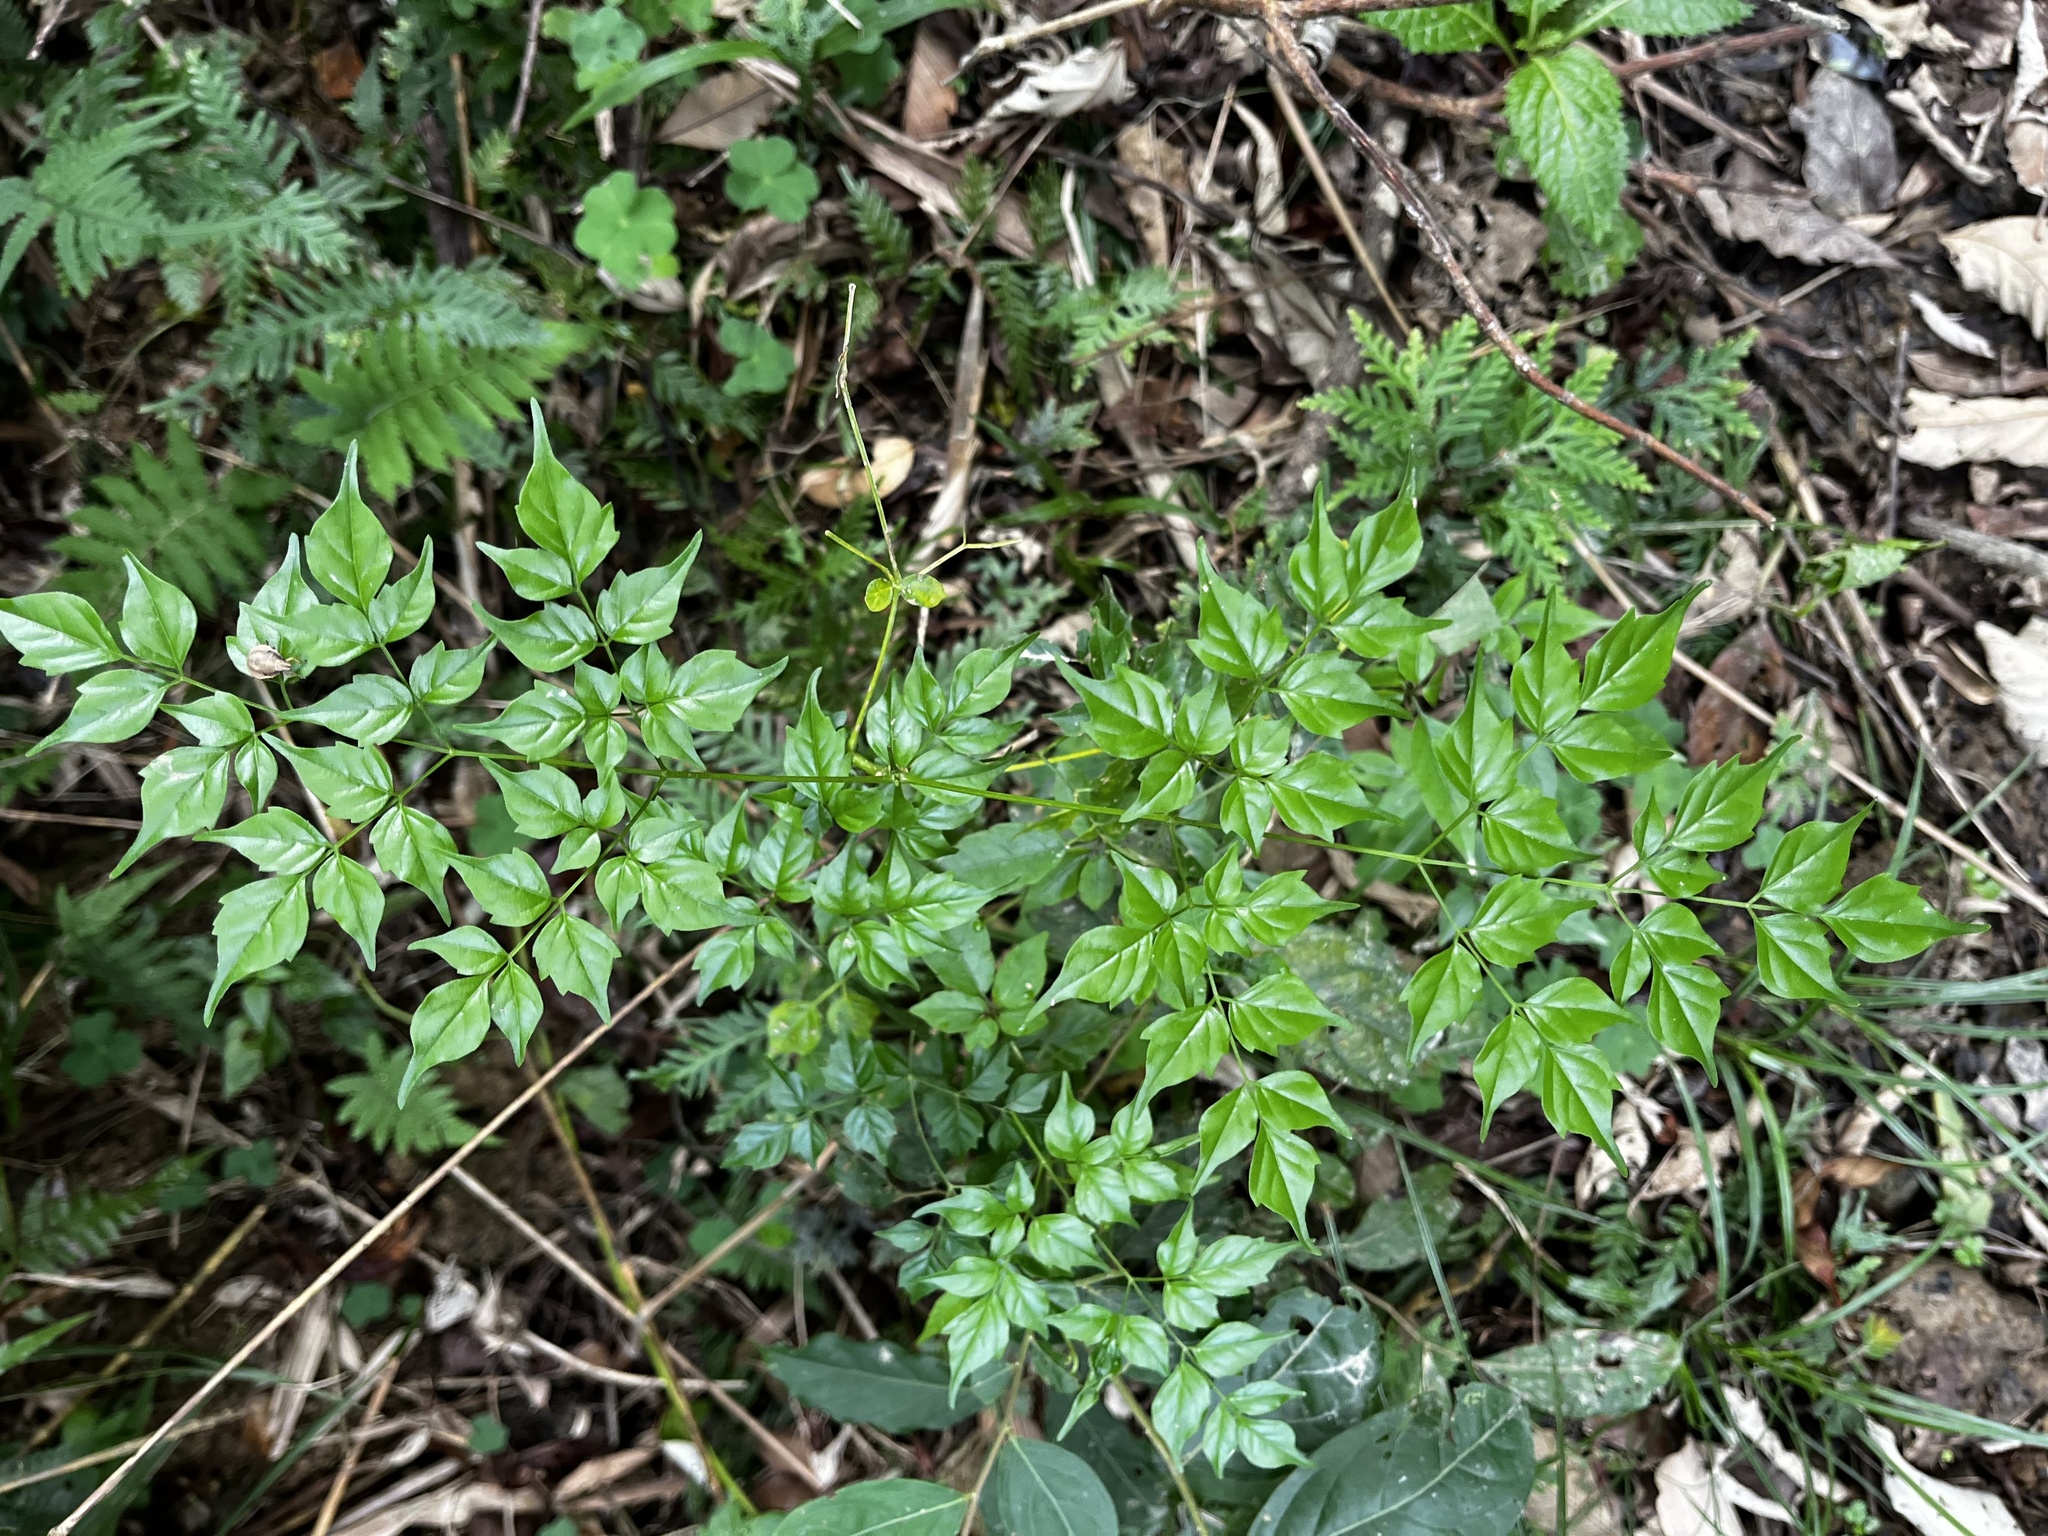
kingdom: Plantae
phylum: Tracheophyta
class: Magnoliopsida
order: Lamiales
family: Bignoniaceae
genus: Radermachera
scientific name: Radermachera sinica
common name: China doll plant
